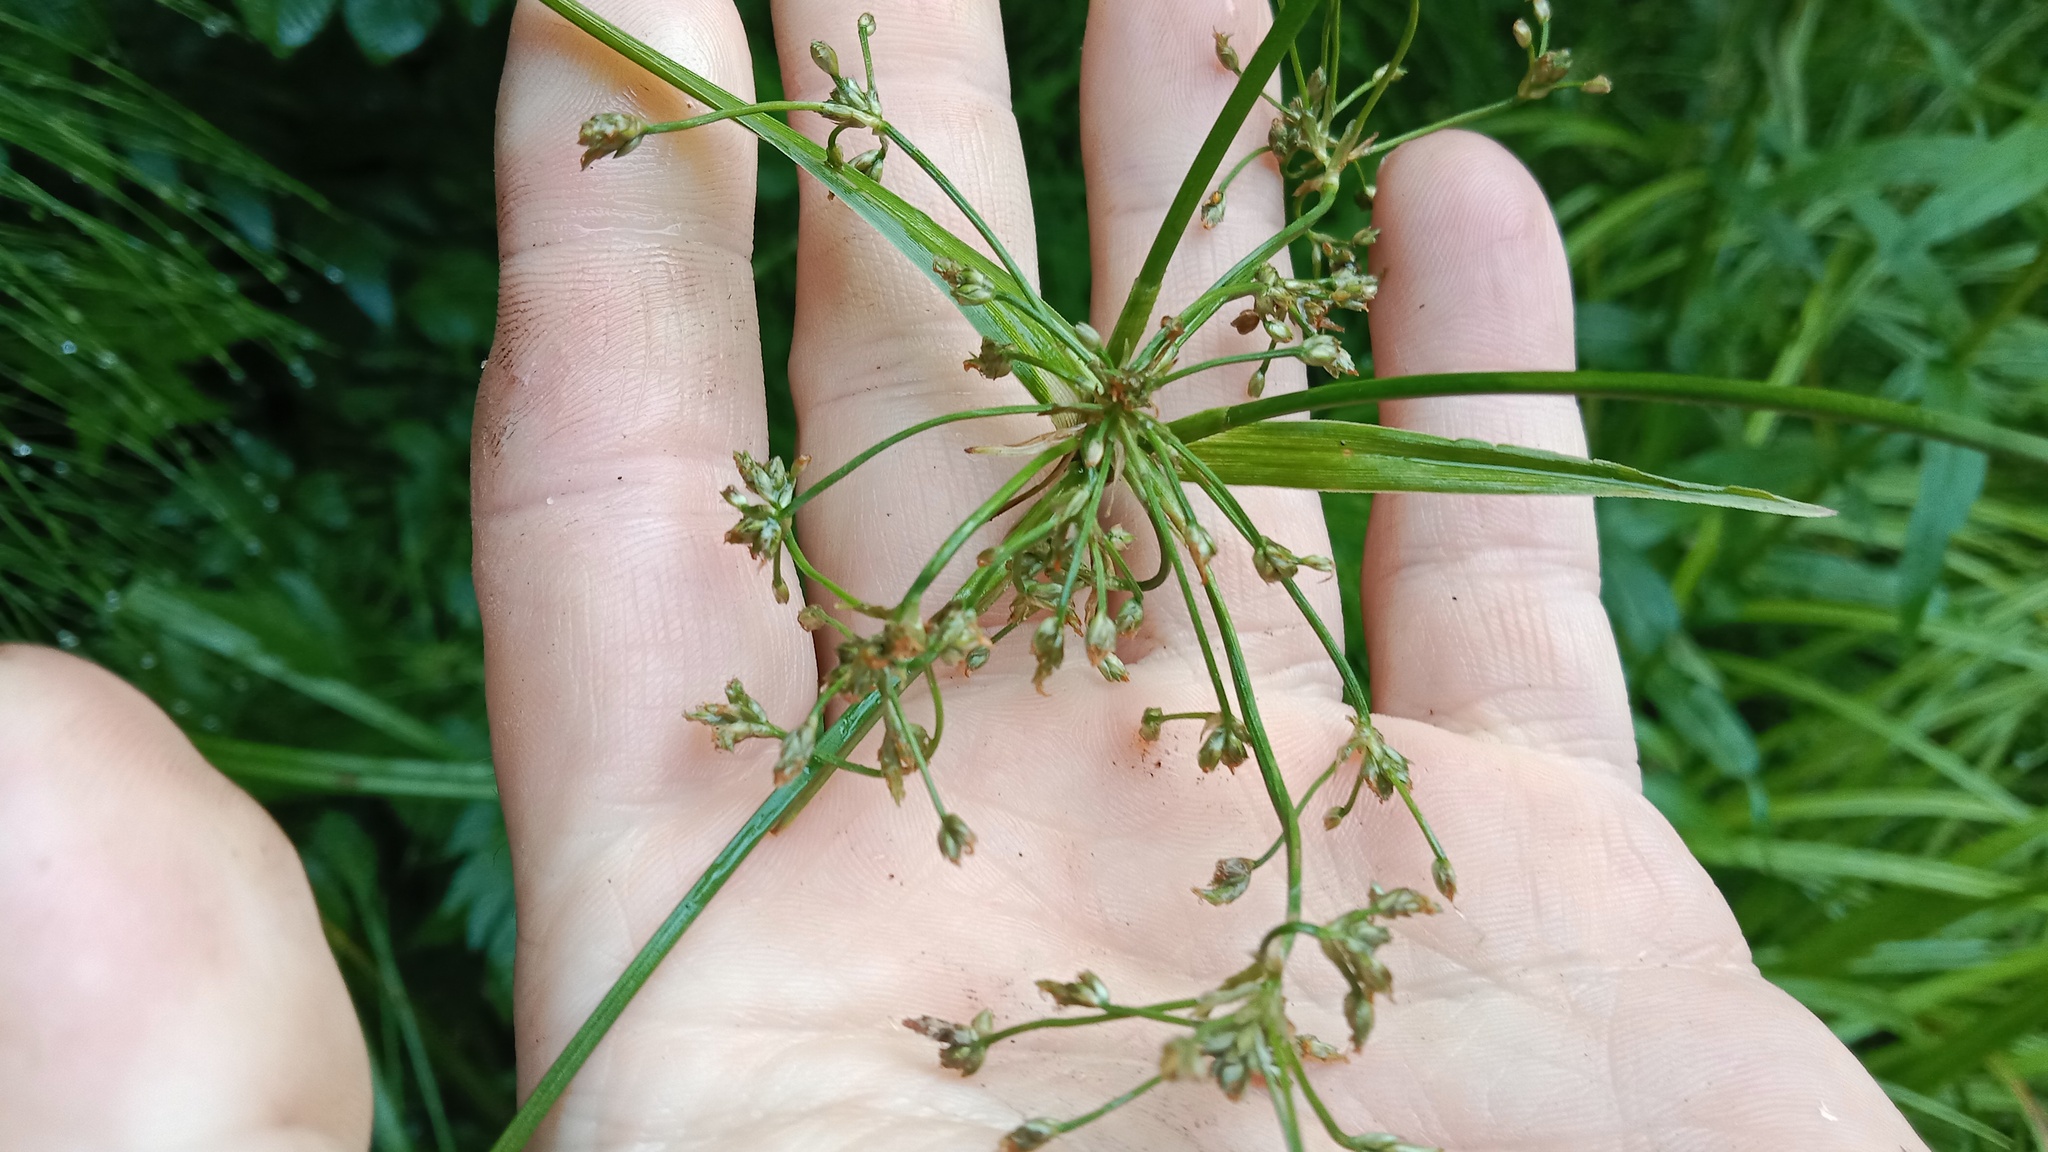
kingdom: Plantae
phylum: Tracheophyta
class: Liliopsida
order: Poales
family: Cyperaceae
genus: Scirpus
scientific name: Scirpus sylvaticus
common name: Wood club-rush
